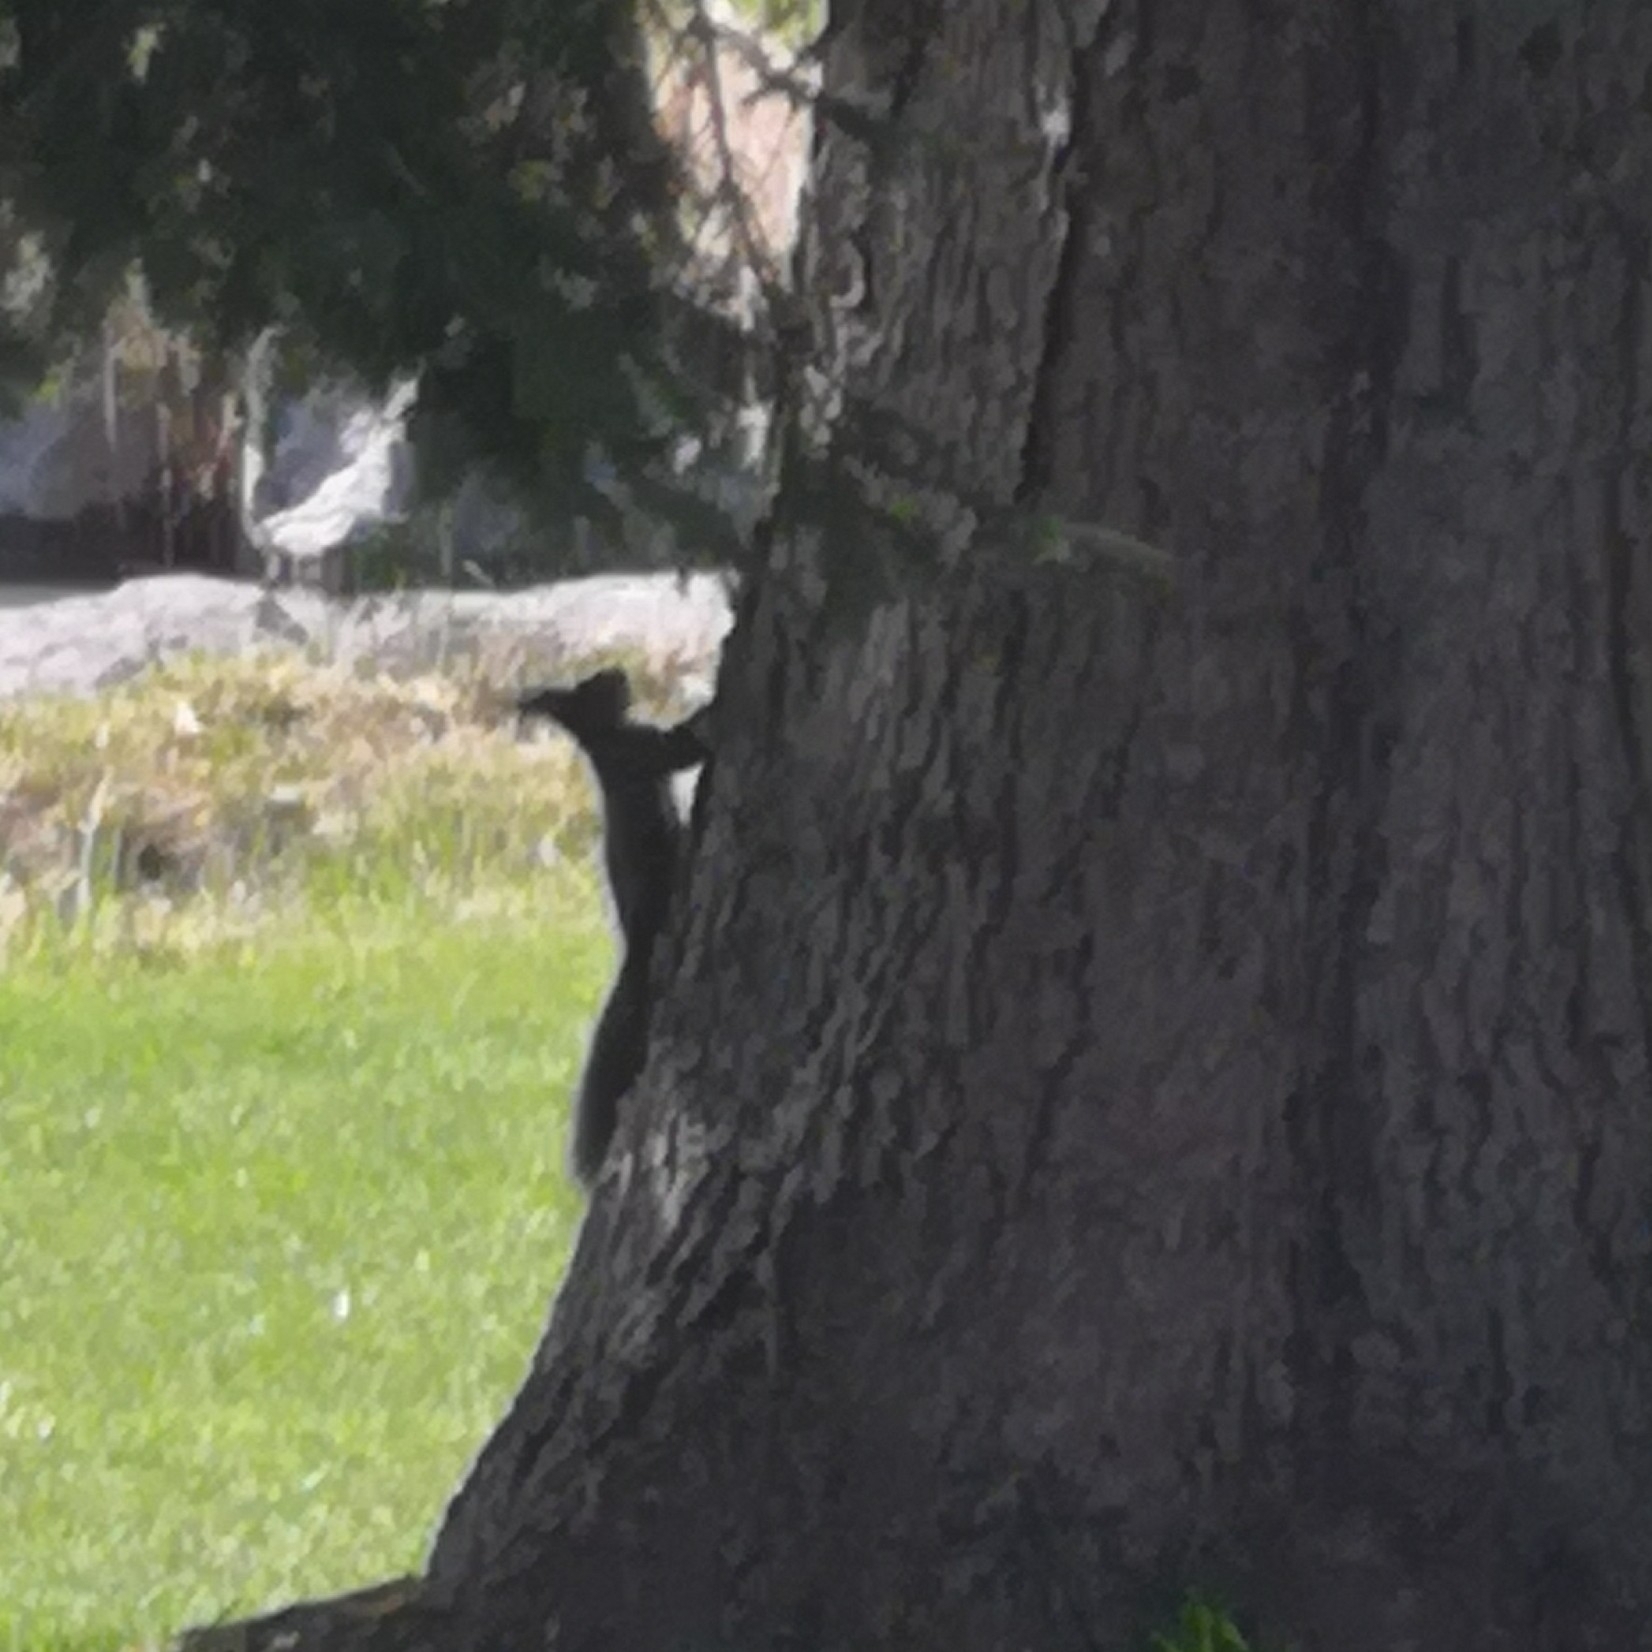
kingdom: Animalia
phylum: Chordata
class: Mammalia
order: Rodentia
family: Sciuridae
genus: Sciurus
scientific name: Sciurus vulgaris
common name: Eurasian red squirrel
